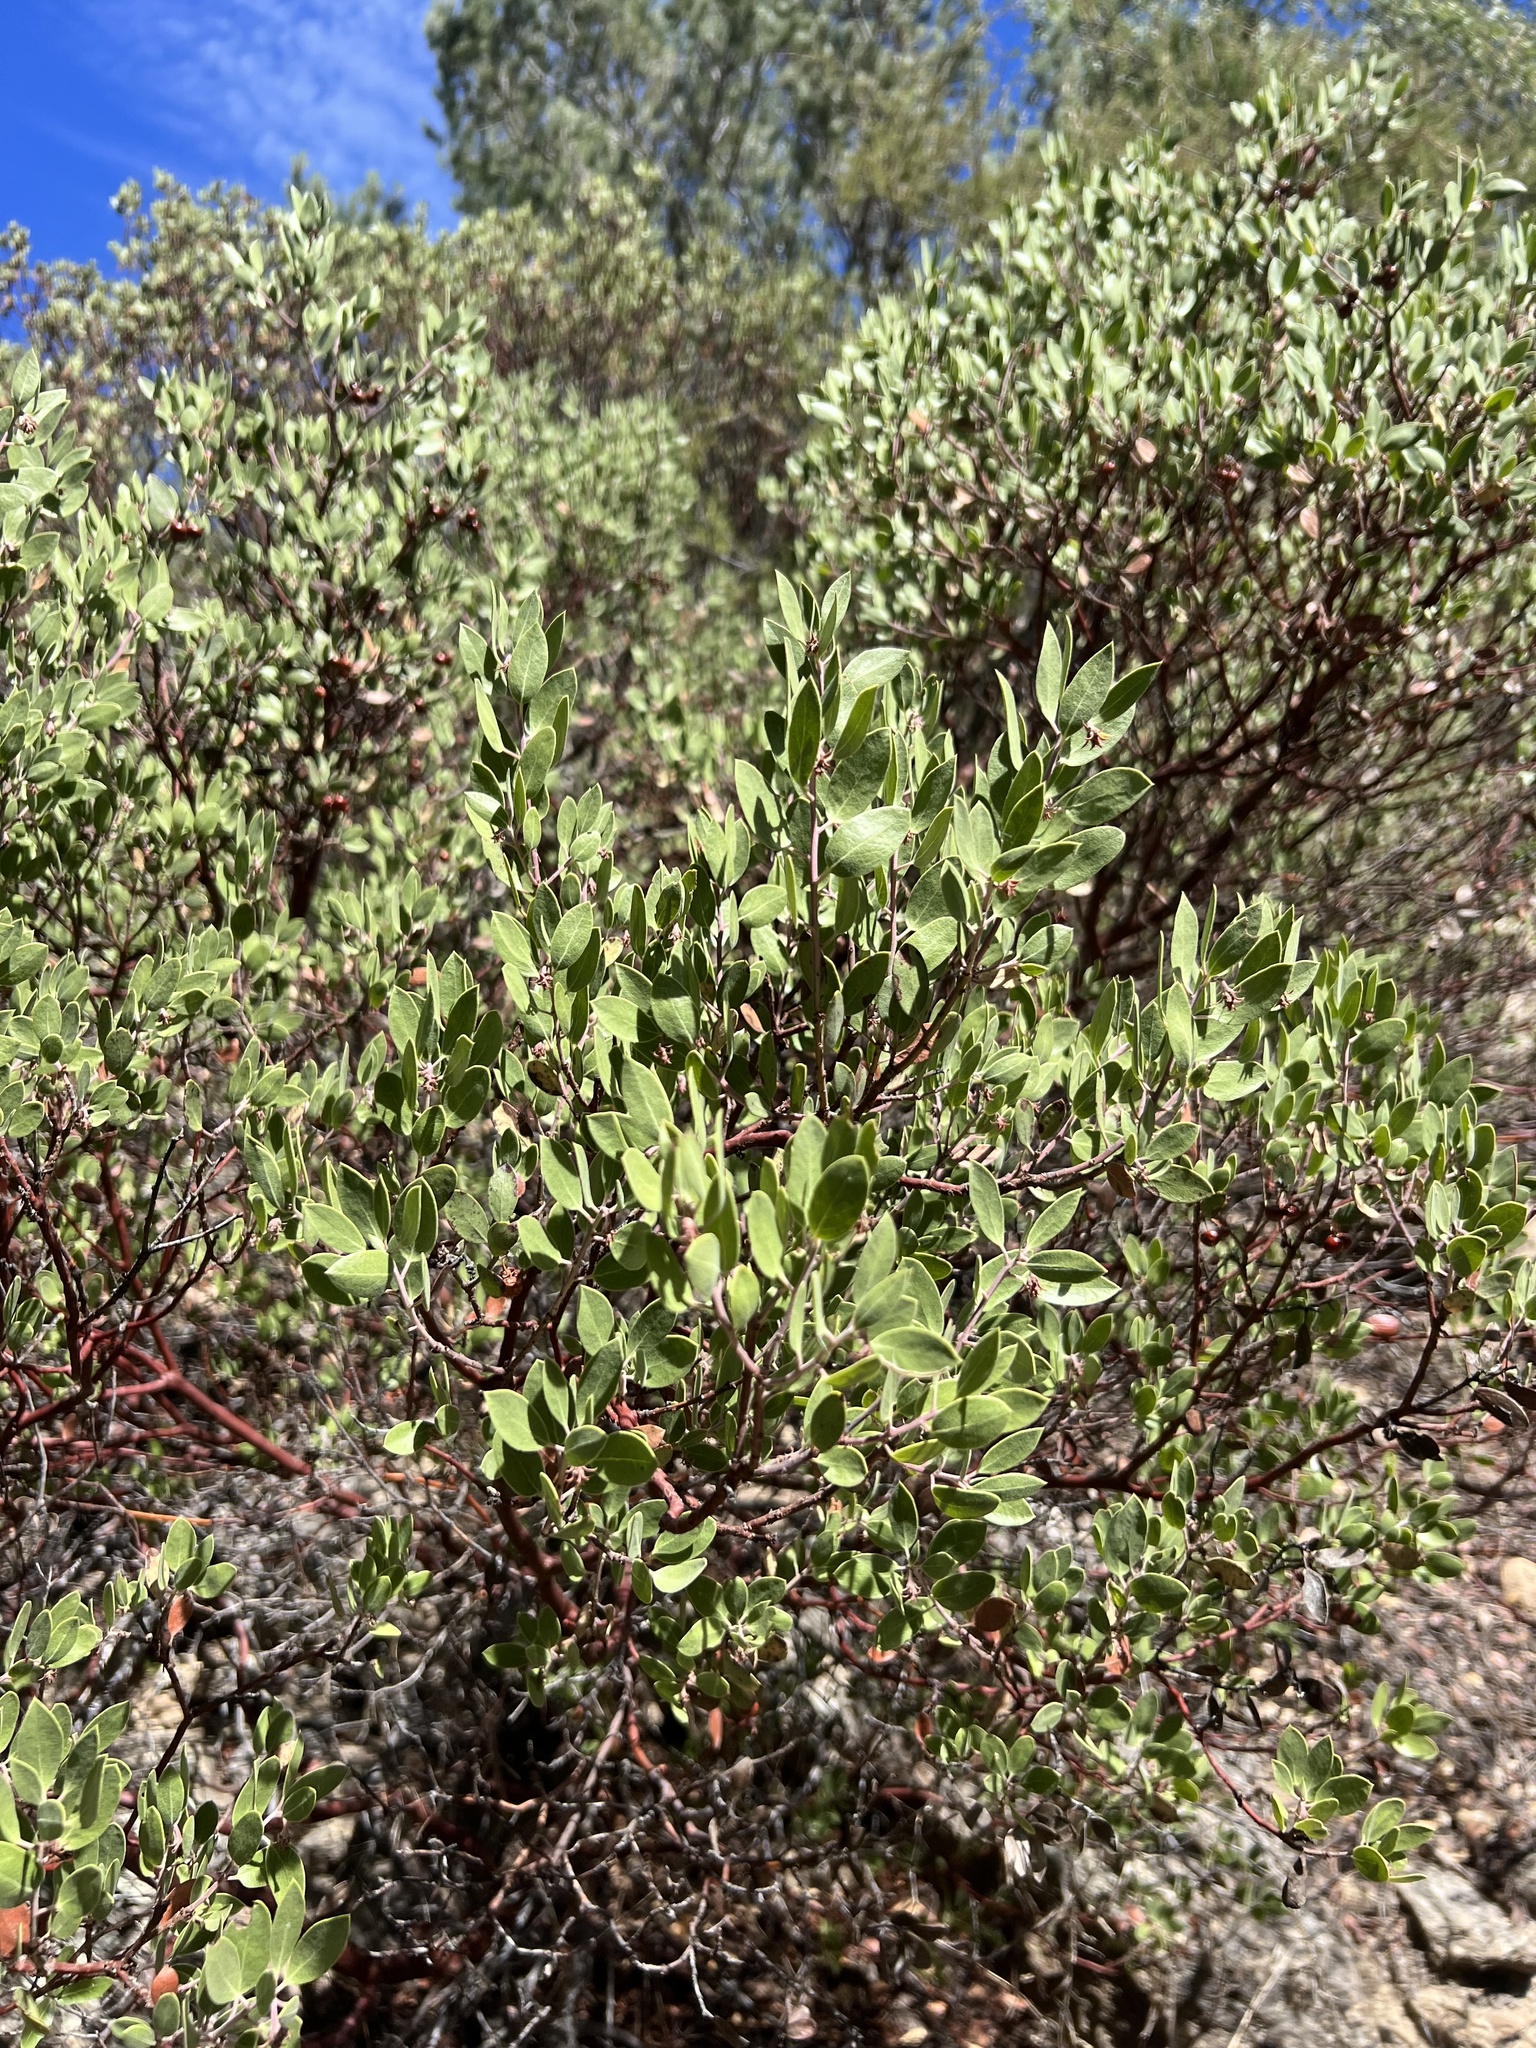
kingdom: Plantae
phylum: Tracheophyta
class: Magnoliopsida
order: Ericales
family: Ericaceae
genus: Arctostaphylos
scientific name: Arctostaphylos pungens
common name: Mexican manzanita
